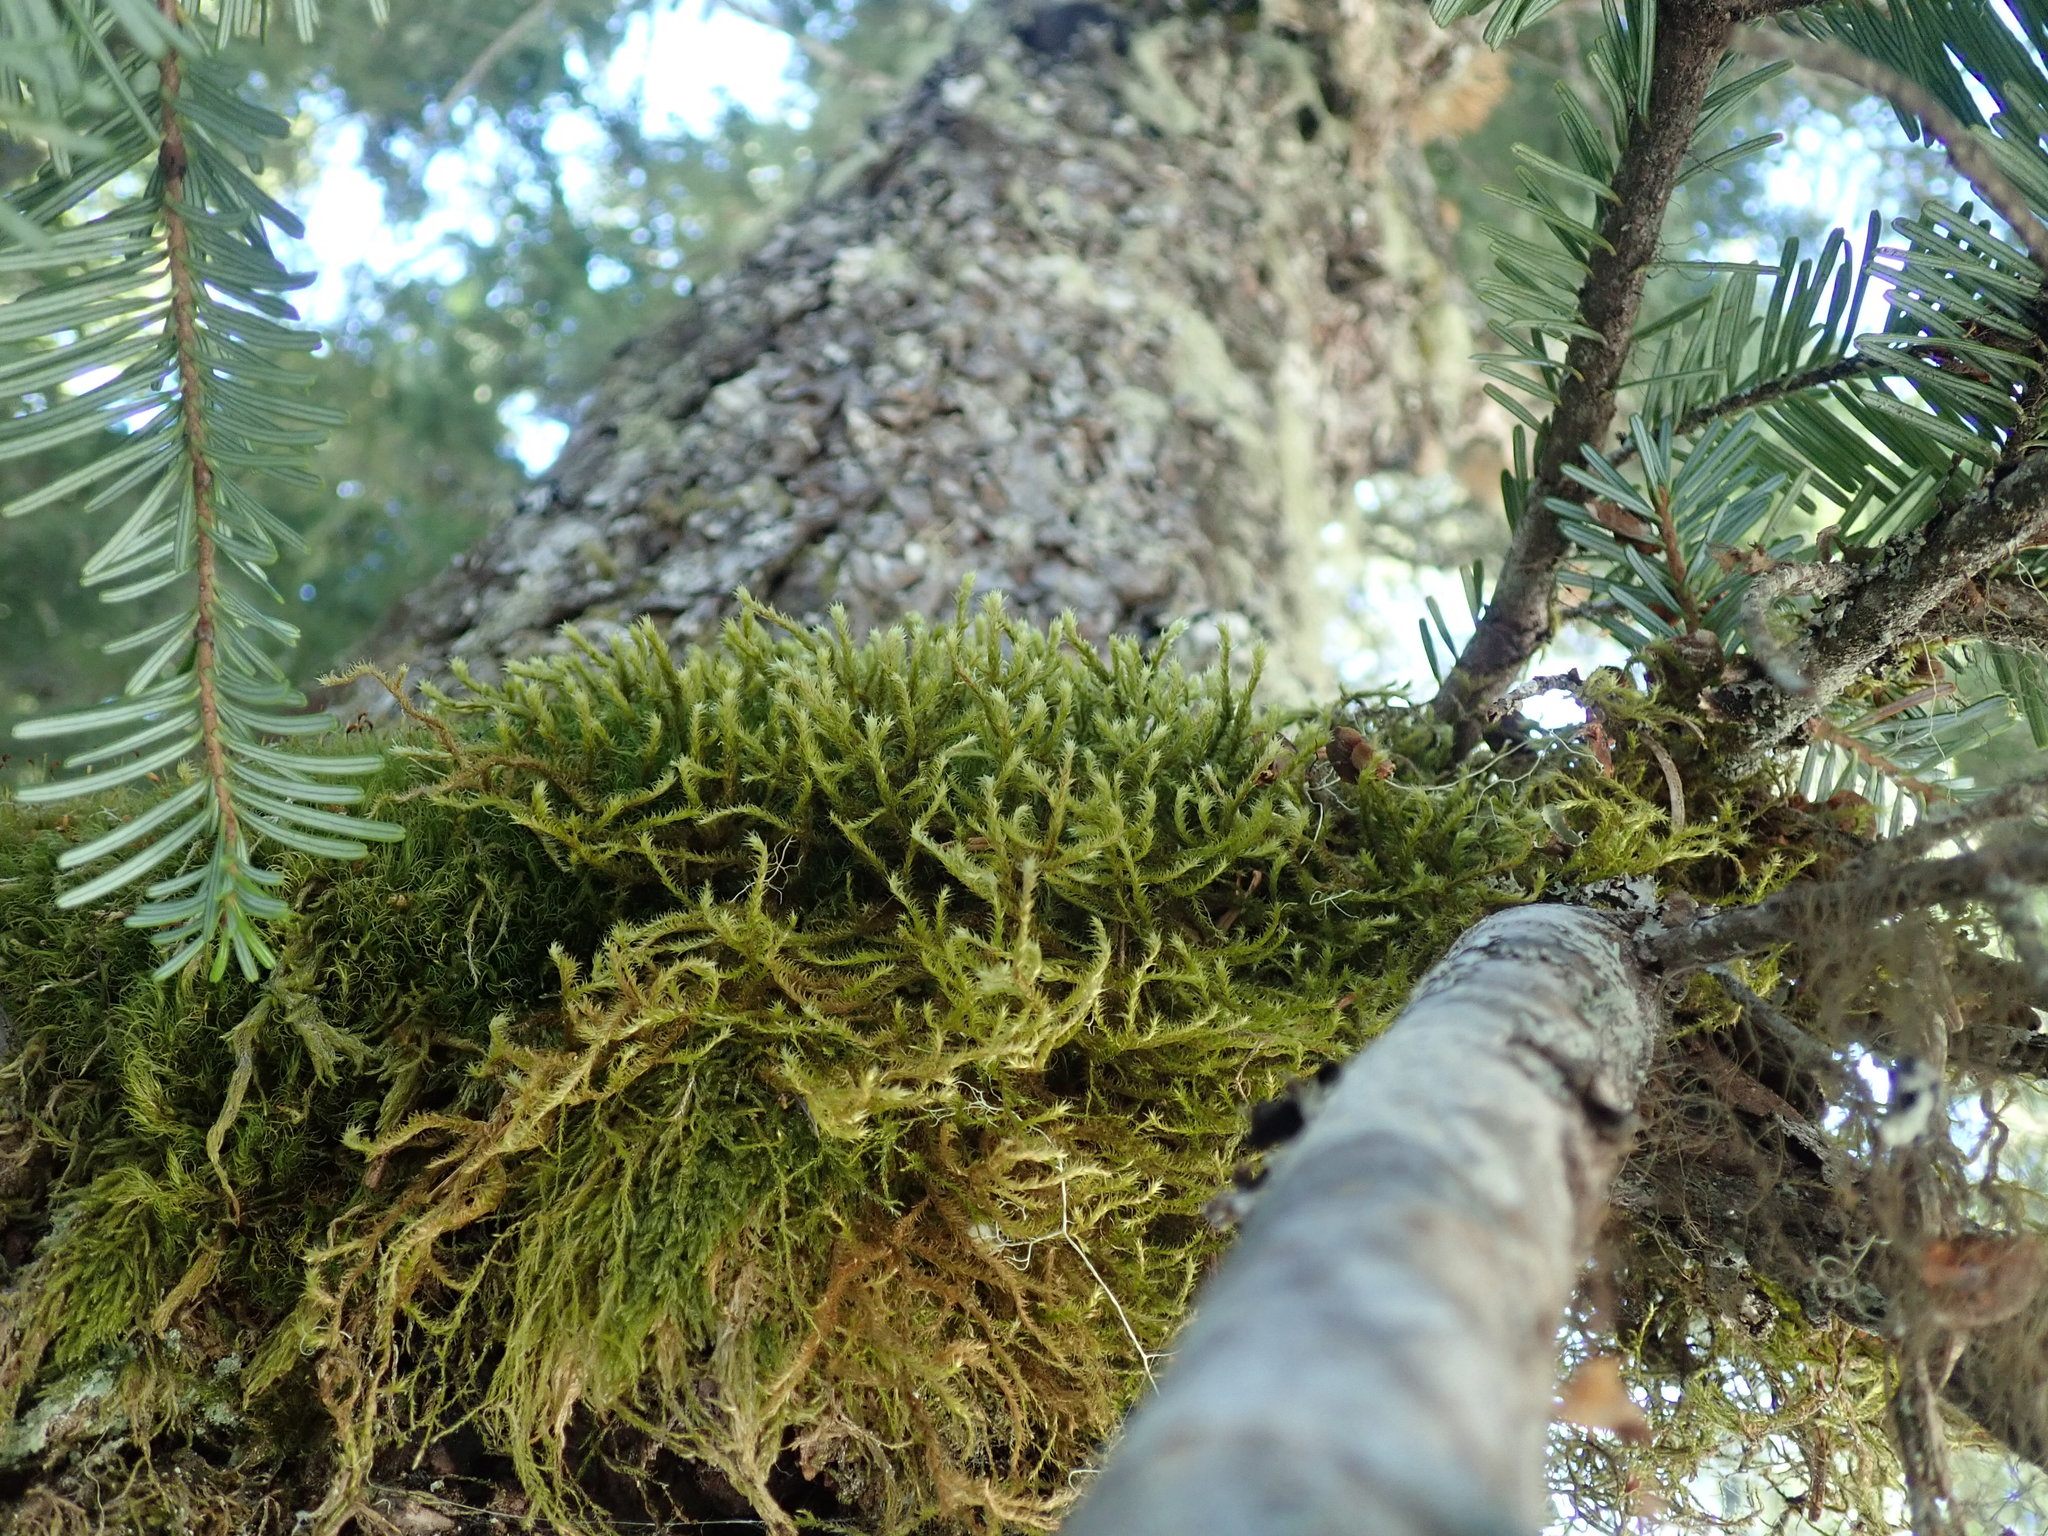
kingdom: Plantae
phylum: Bryophyta
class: Bryopsida
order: Hypnales
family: Antitrichiaceae
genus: Antitrichia
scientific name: Antitrichia curtipendula
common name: Pendulous wing-moss
